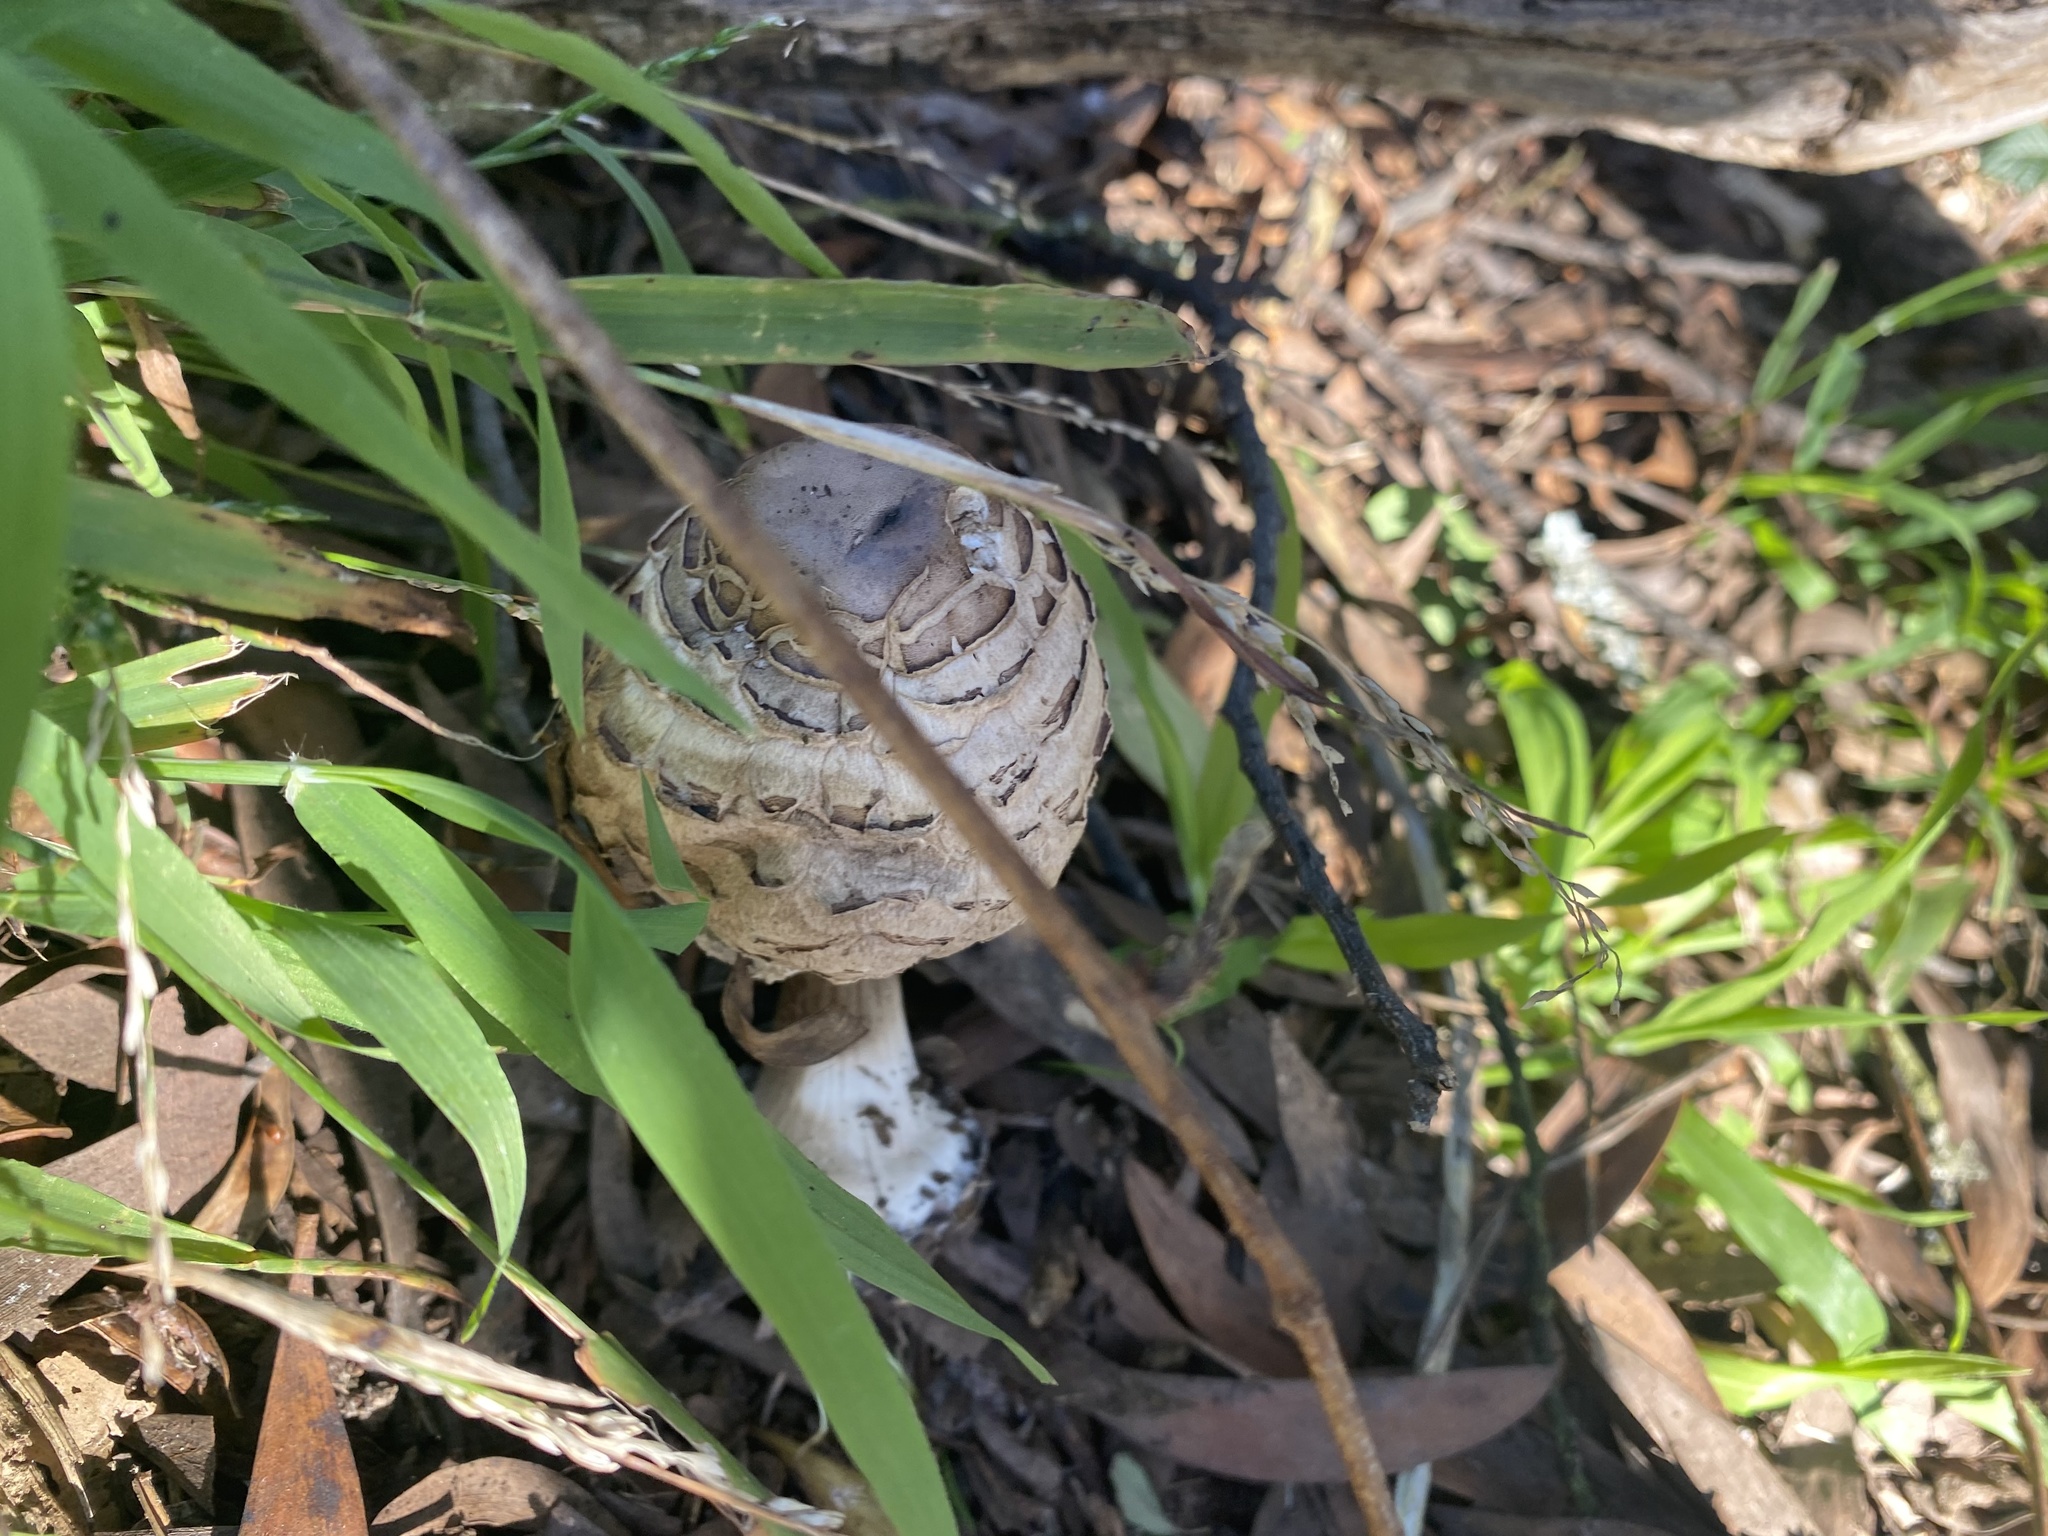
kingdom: Fungi
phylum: Basidiomycota
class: Agaricomycetes
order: Agaricales
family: Agaricaceae
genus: Chlorophyllum
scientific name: Chlorophyllum brunneum
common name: Brown parasol
